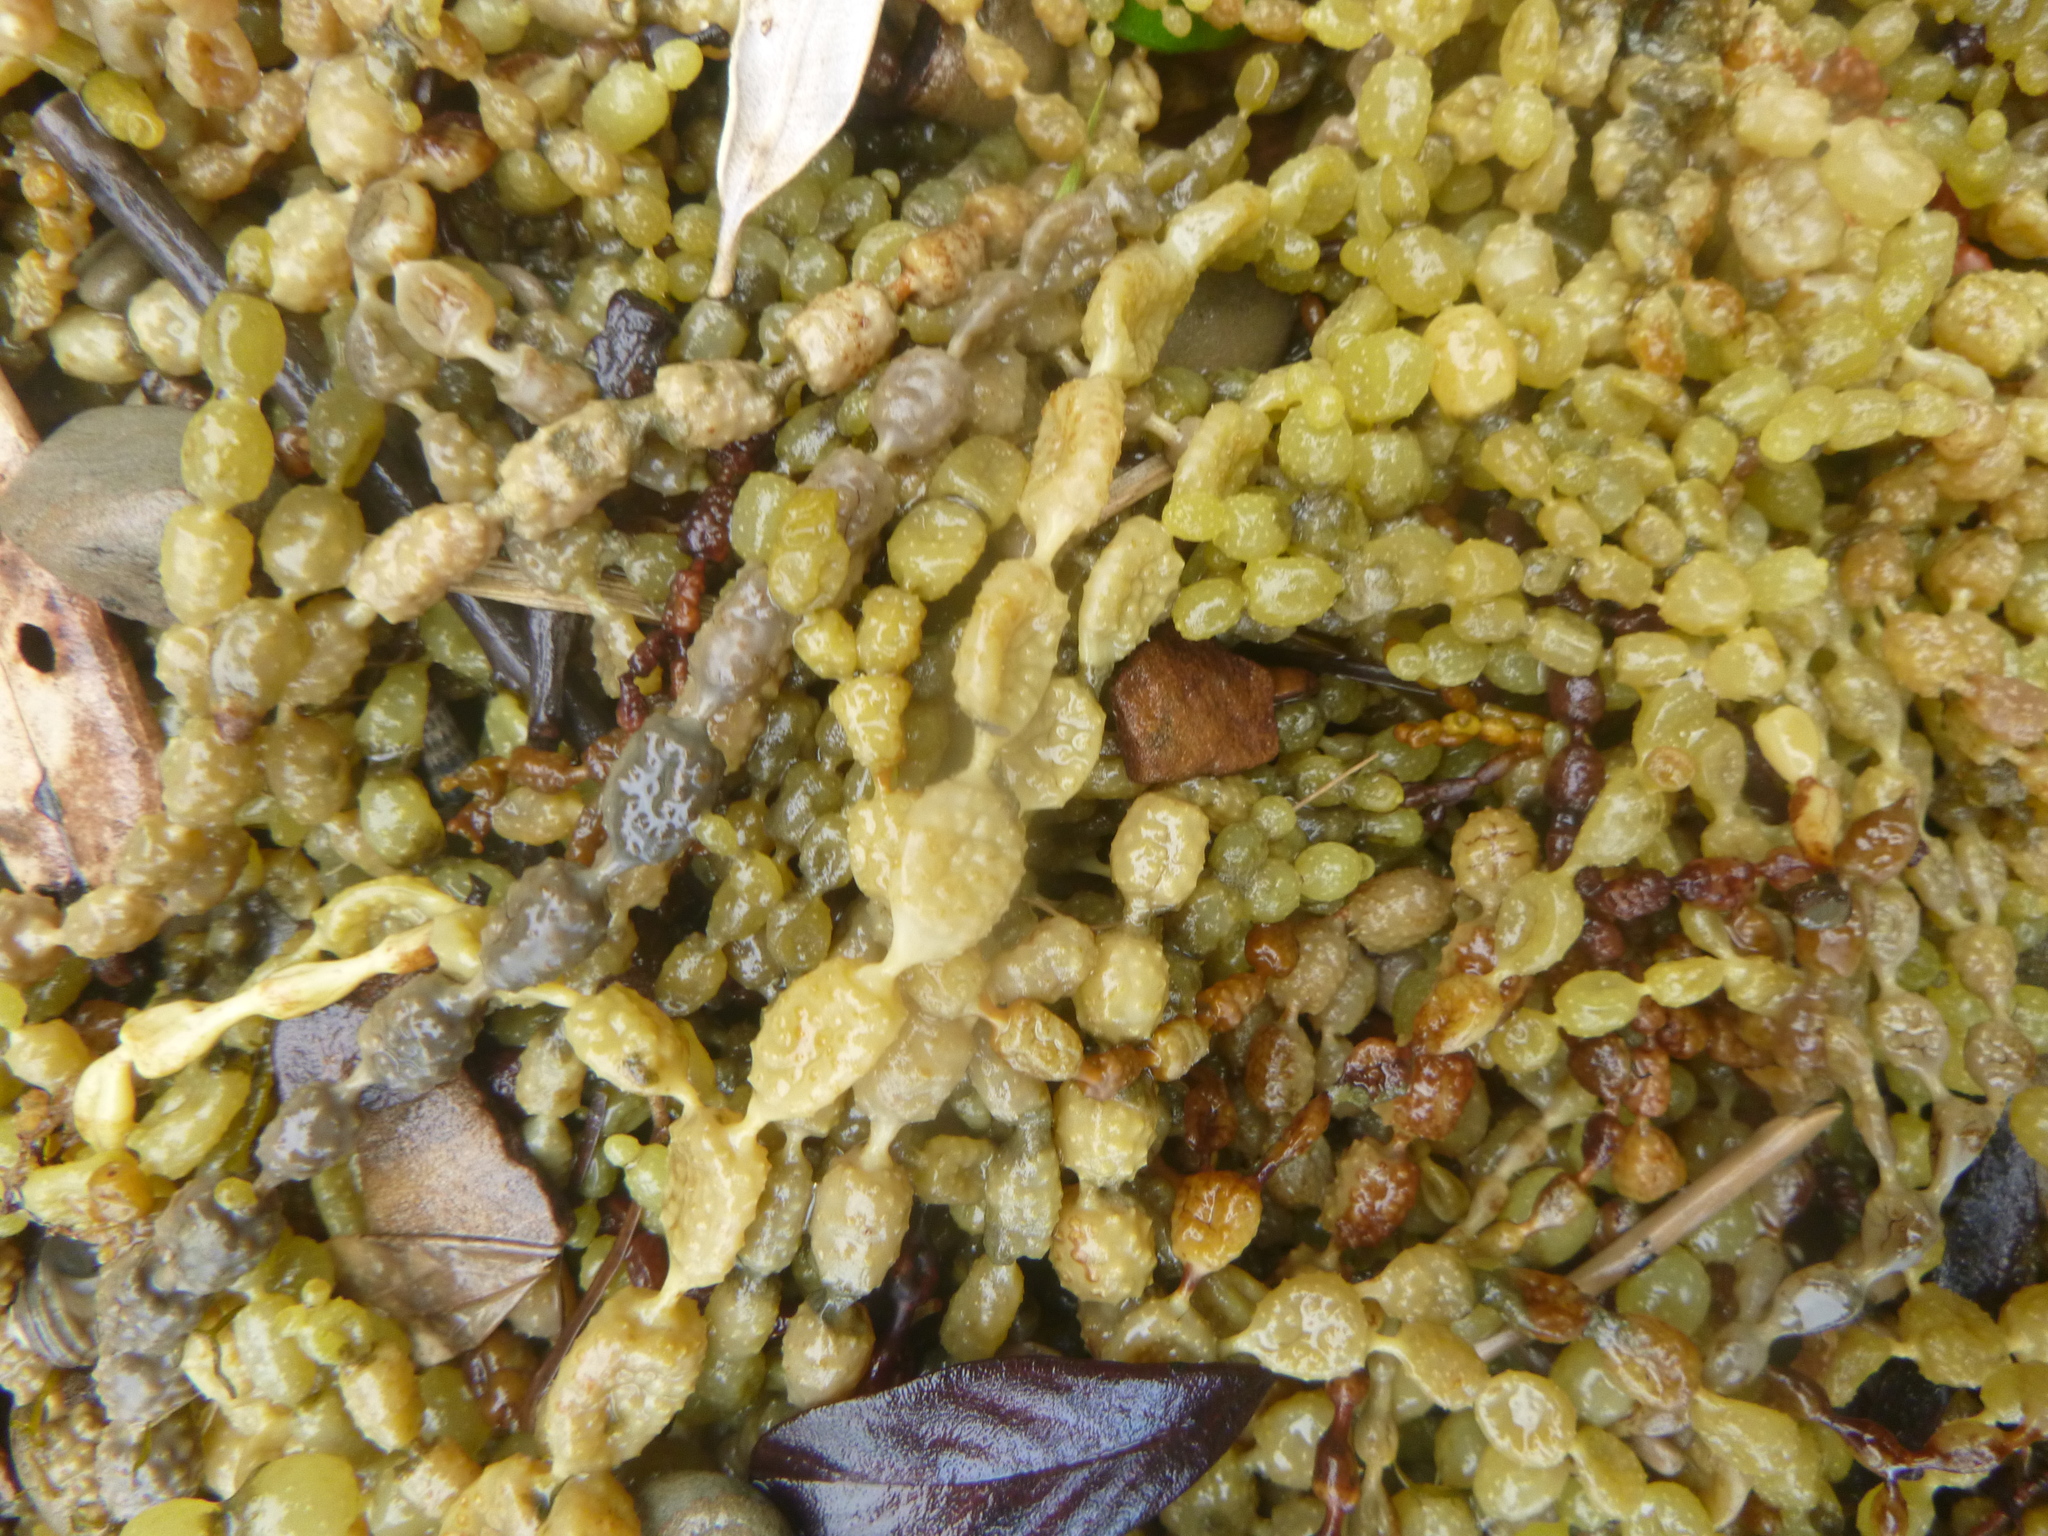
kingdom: Chromista
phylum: Ochrophyta
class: Phaeophyceae
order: Fucales
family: Hormosiraceae
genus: Hormosira
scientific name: Hormosira banksii
